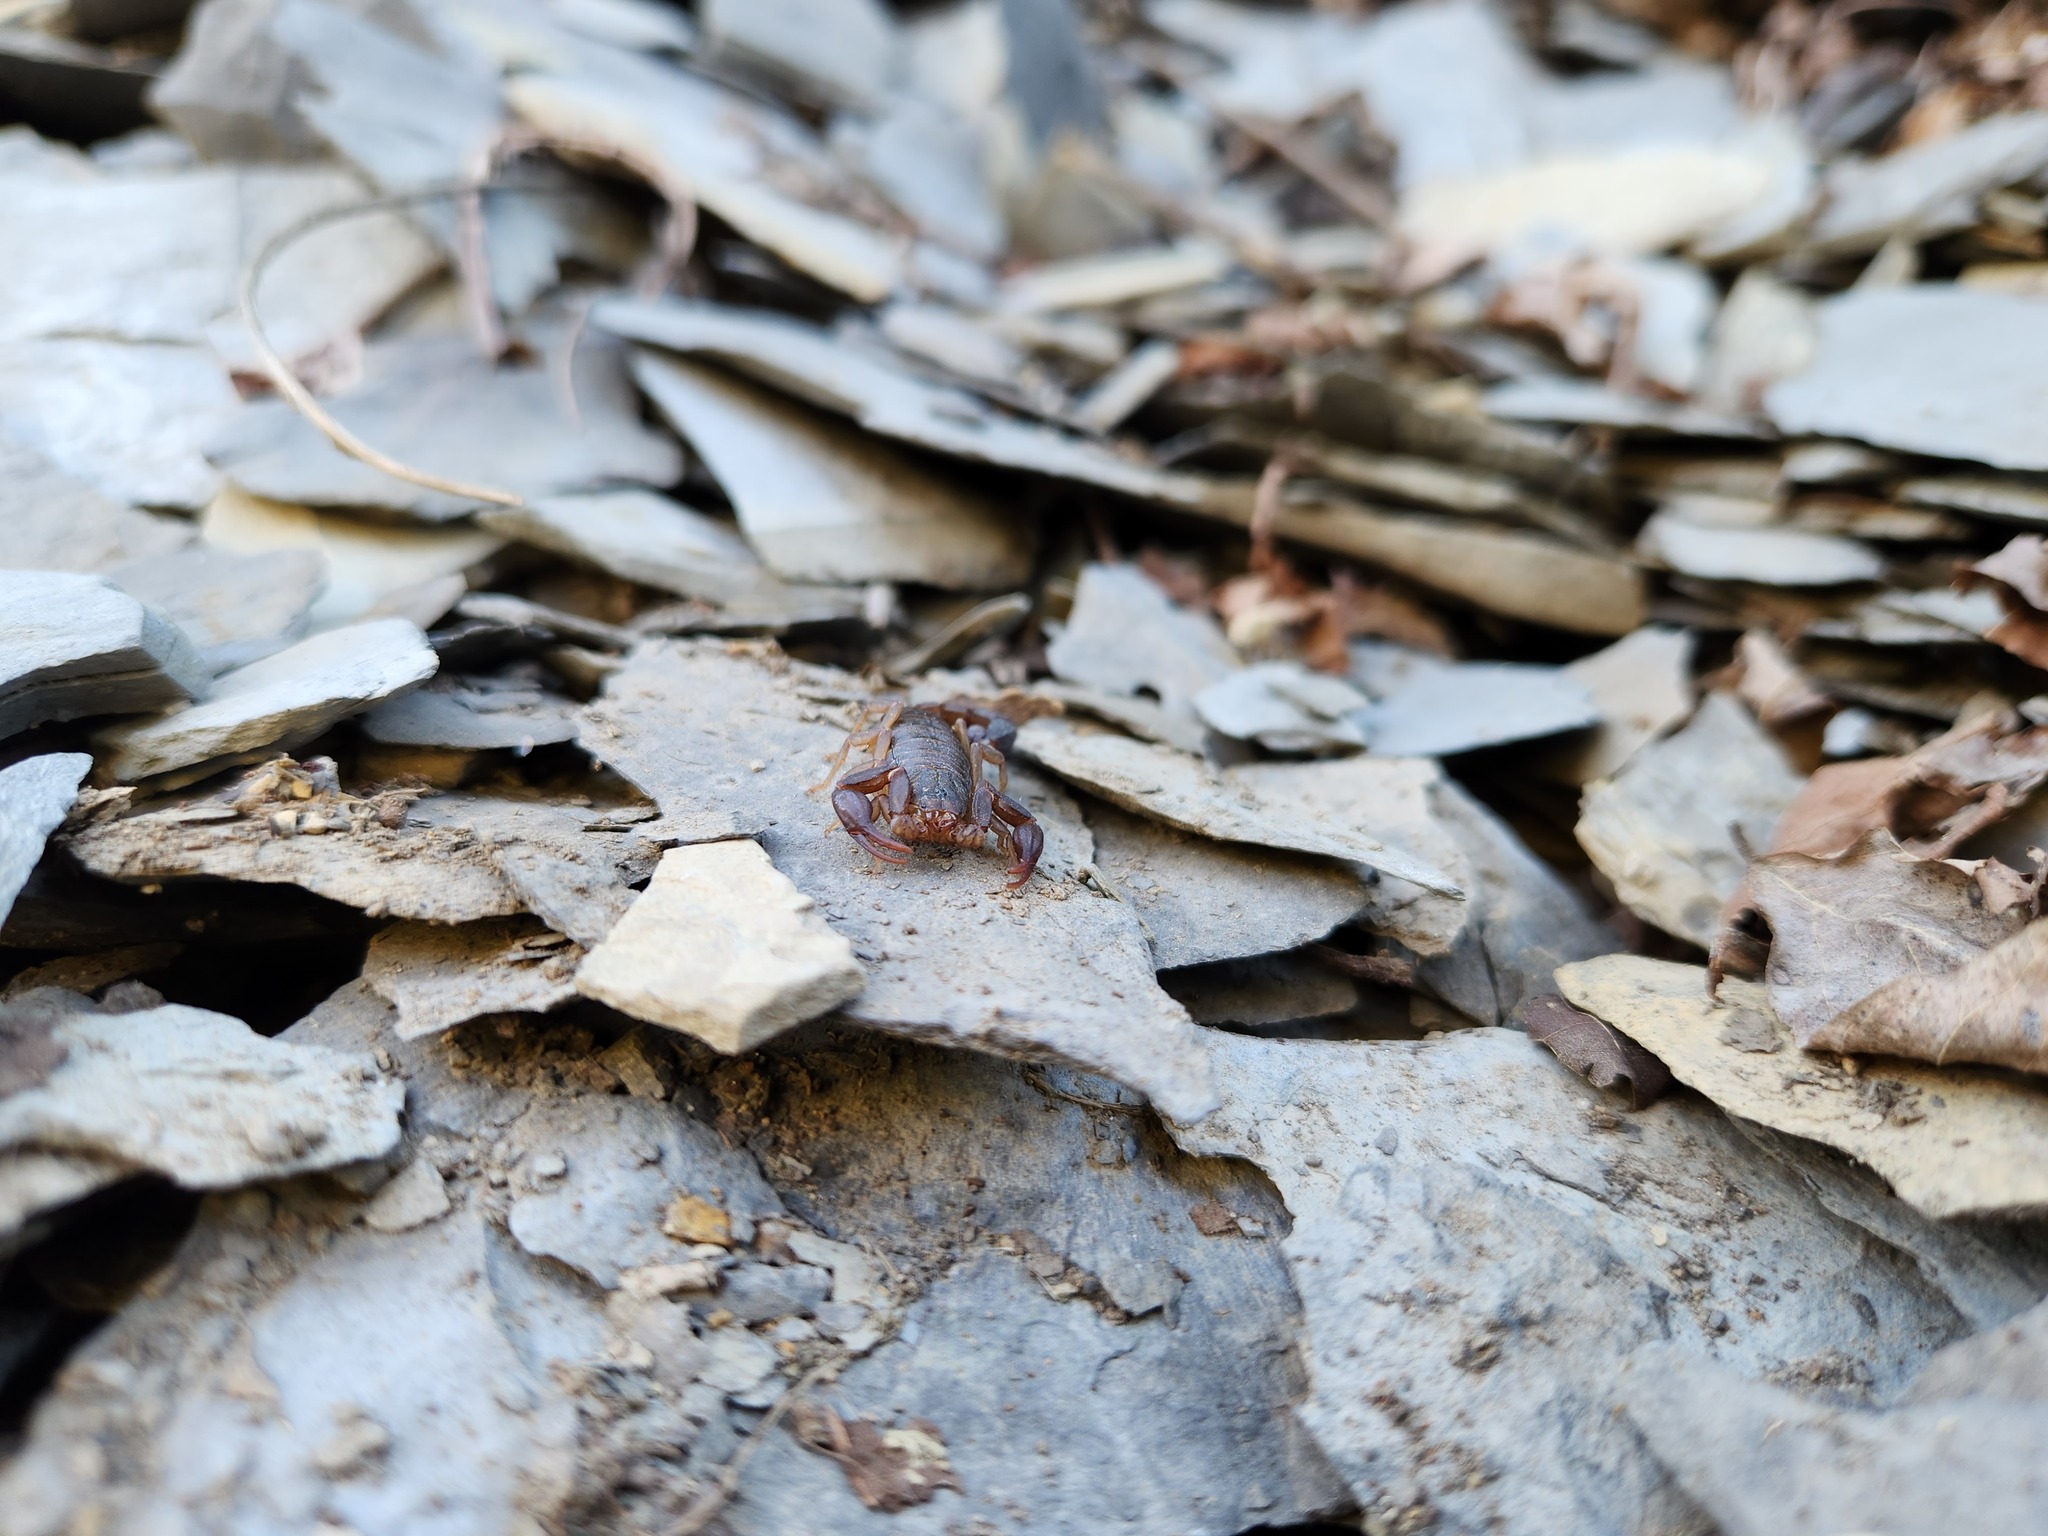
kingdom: Animalia
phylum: Arthropoda
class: Arachnida
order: Scorpiones
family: Vaejovidae
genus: Vaejovis
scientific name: Vaejovis carolinianus
